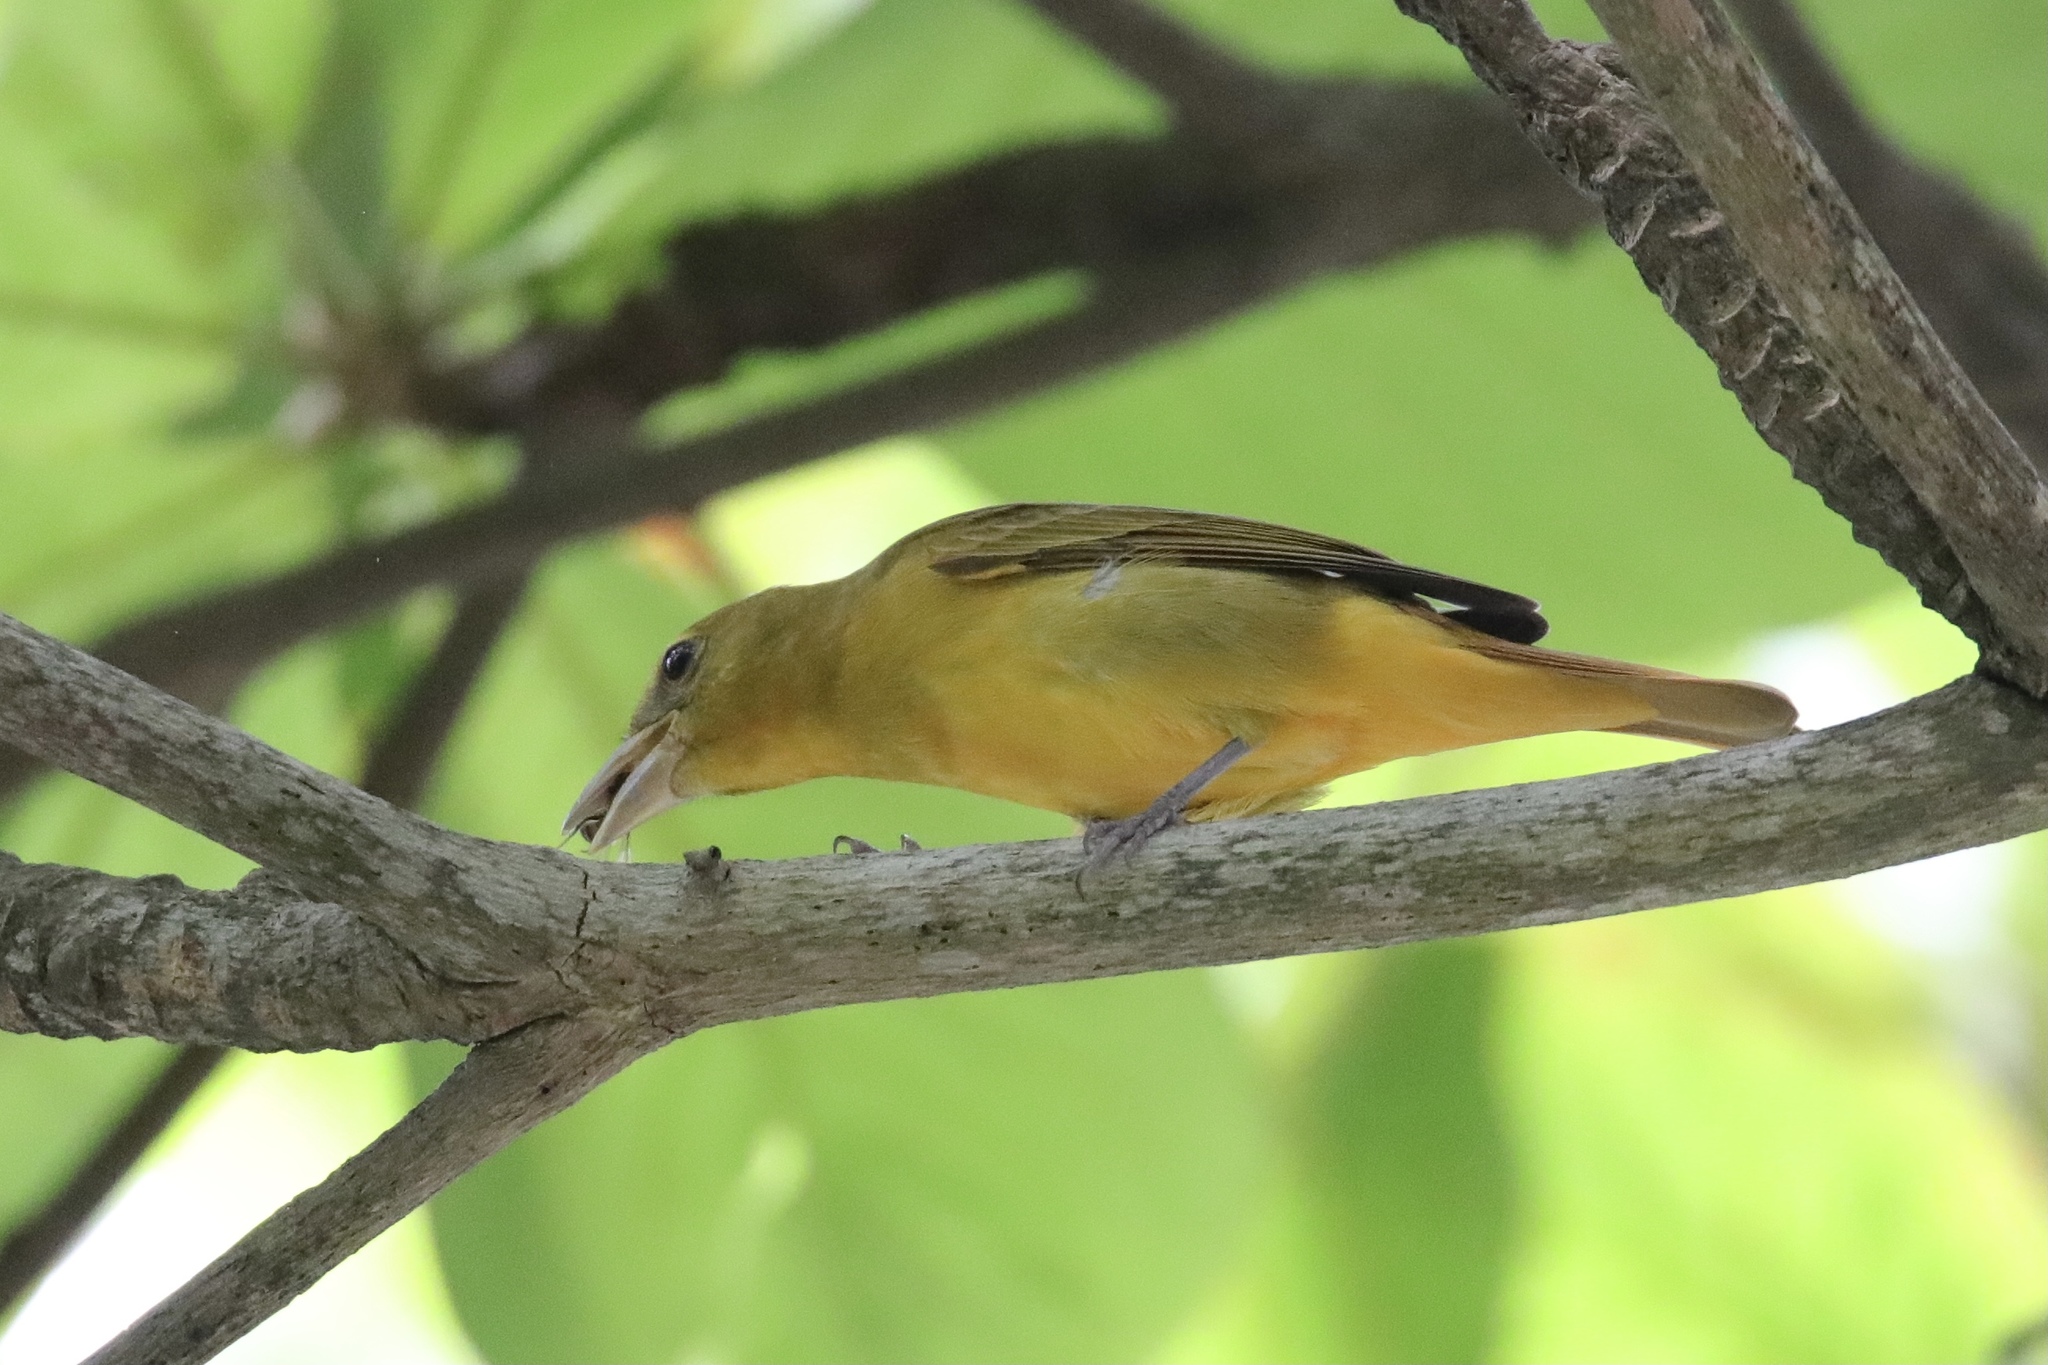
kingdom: Animalia
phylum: Chordata
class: Aves
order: Passeriformes
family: Cardinalidae
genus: Piranga
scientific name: Piranga rubra
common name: Summer tanager
